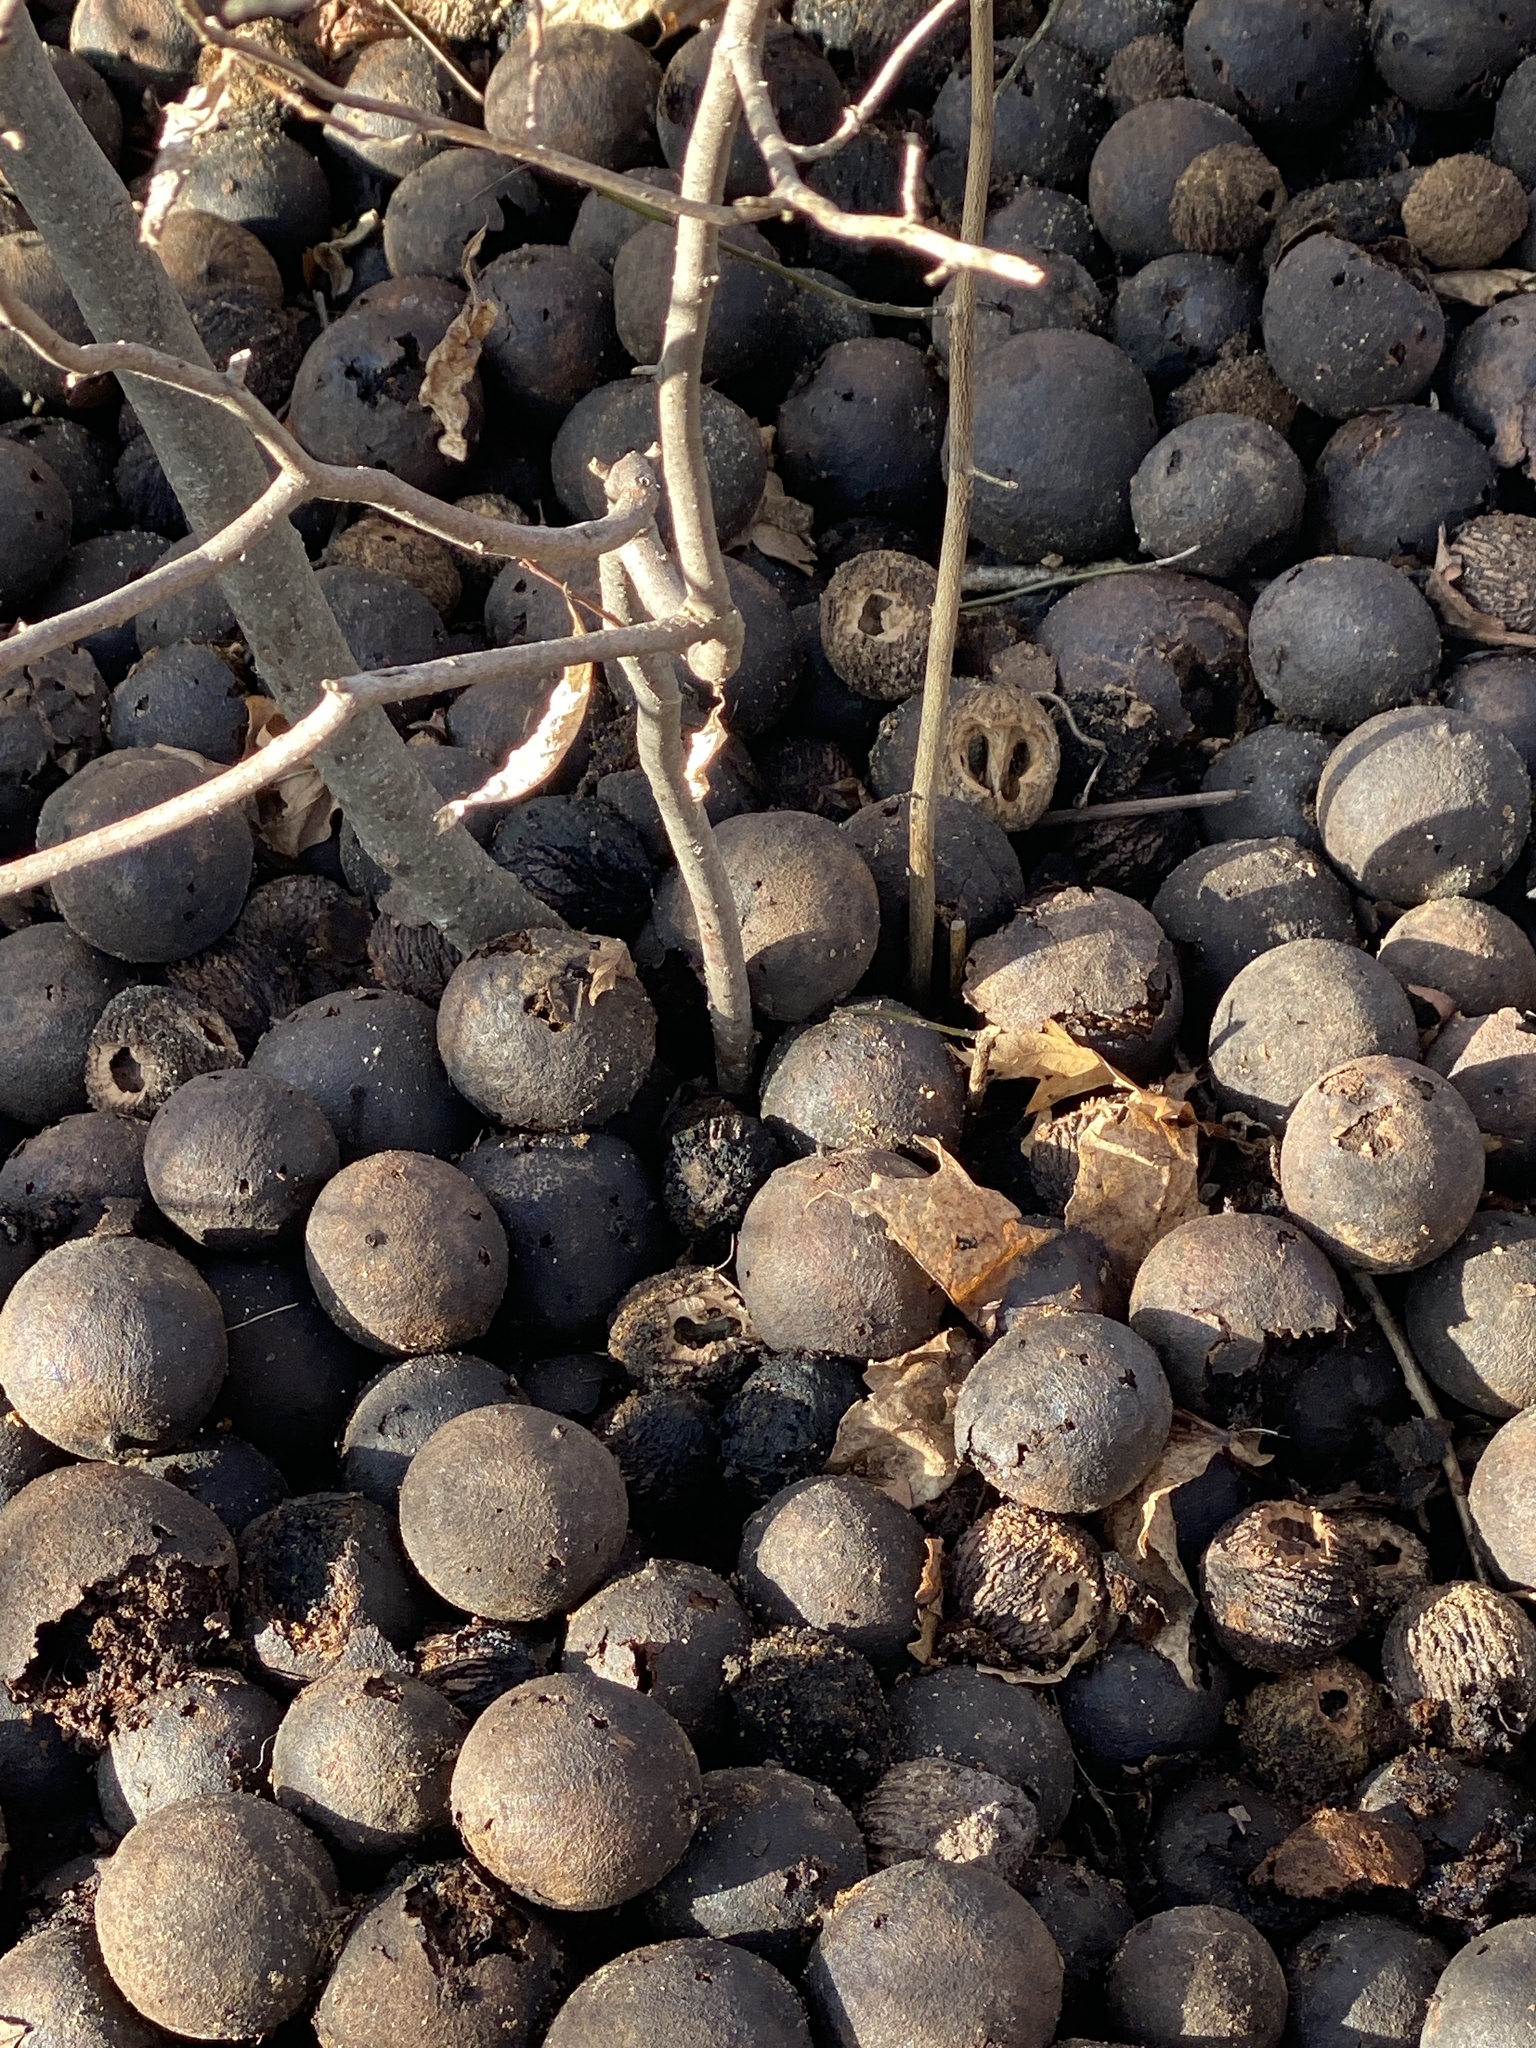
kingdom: Plantae
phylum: Tracheophyta
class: Magnoliopsida
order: Fagales
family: Juglandaceae
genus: Juglans
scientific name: Juglans nigra
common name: Black walnut
